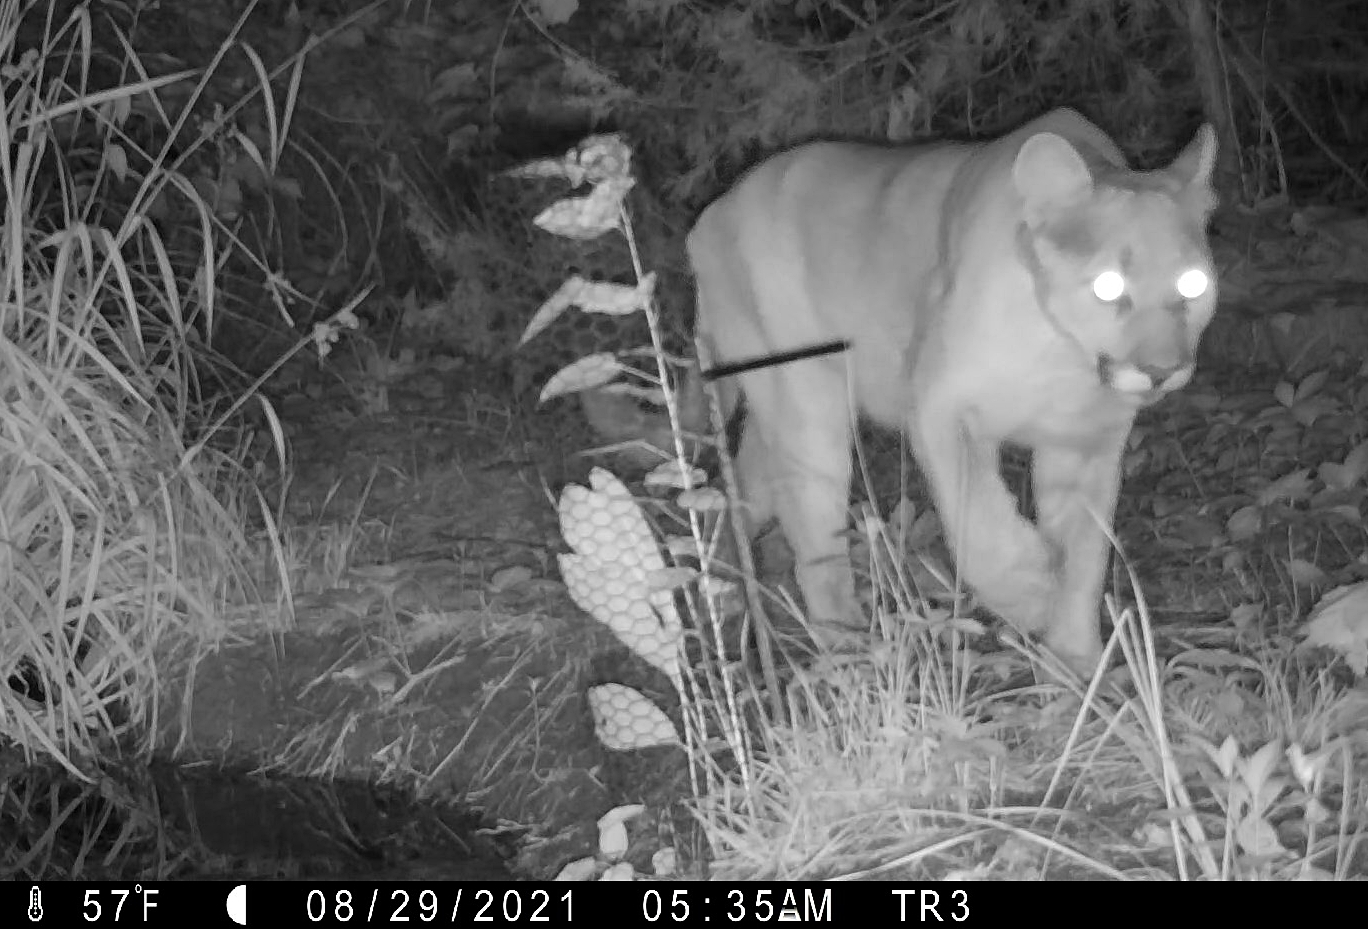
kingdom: Animalia
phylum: Chordata
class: Mammalia
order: Carnivora
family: Felidae
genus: Puma
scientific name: Puma concolor
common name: Puma
